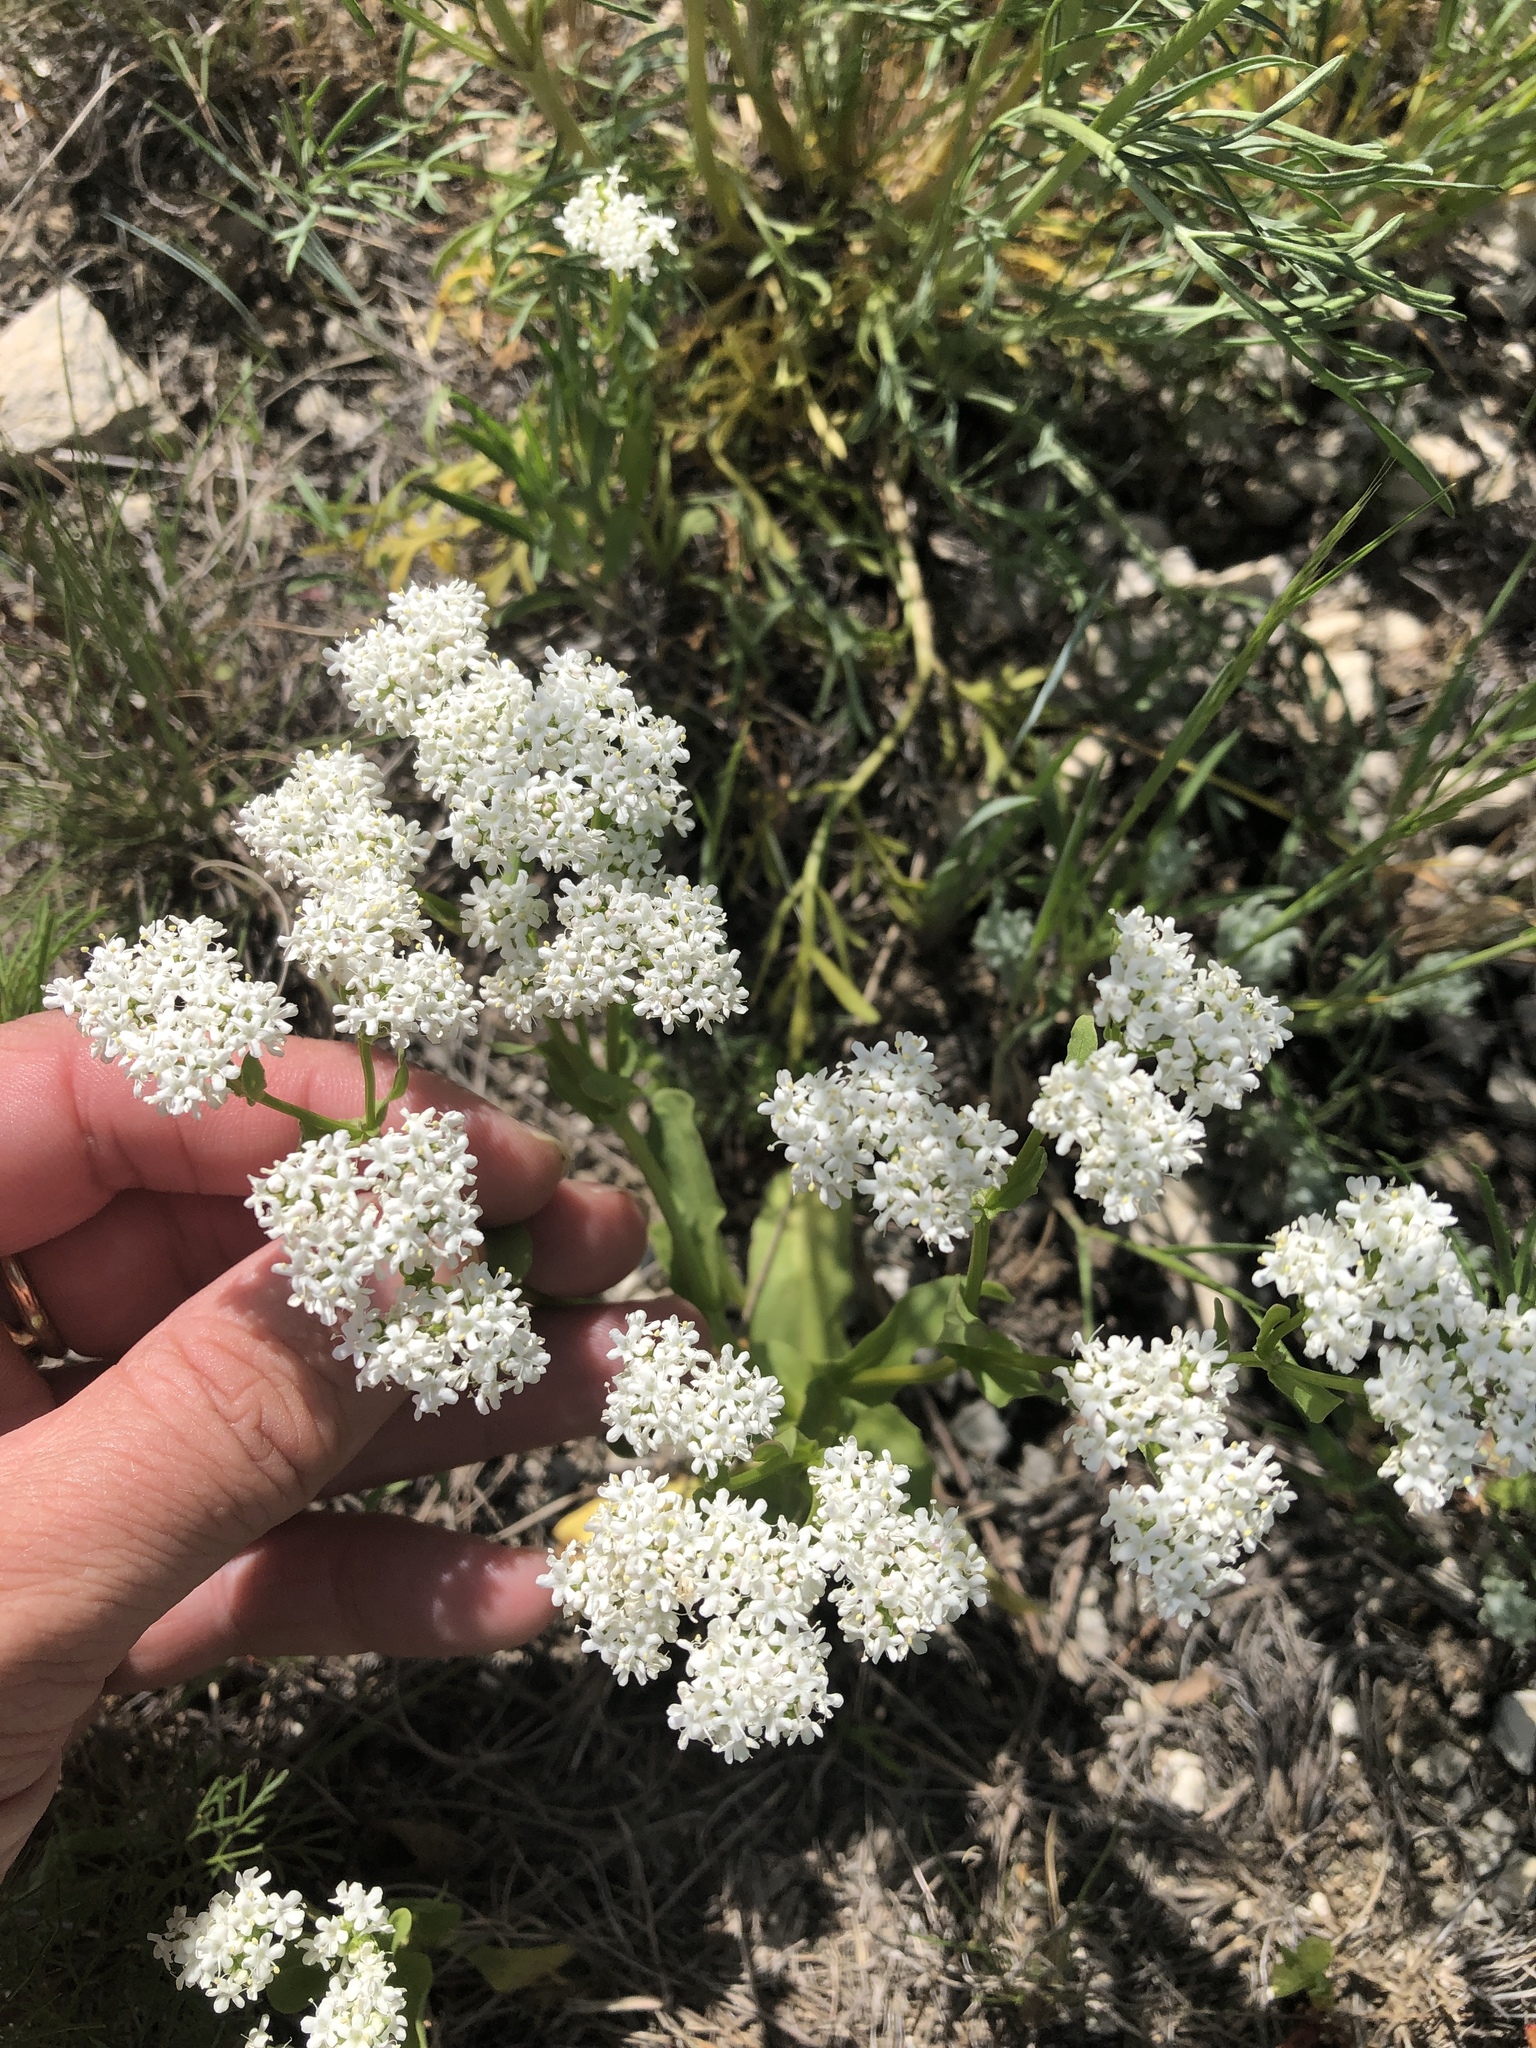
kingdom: Plantae
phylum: Tracheophyta
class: Magnoliopsida
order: Dipsacales
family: Caprifoliaceae
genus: Valerianella
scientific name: Valerianella amarella
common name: Hariy cornsalad
